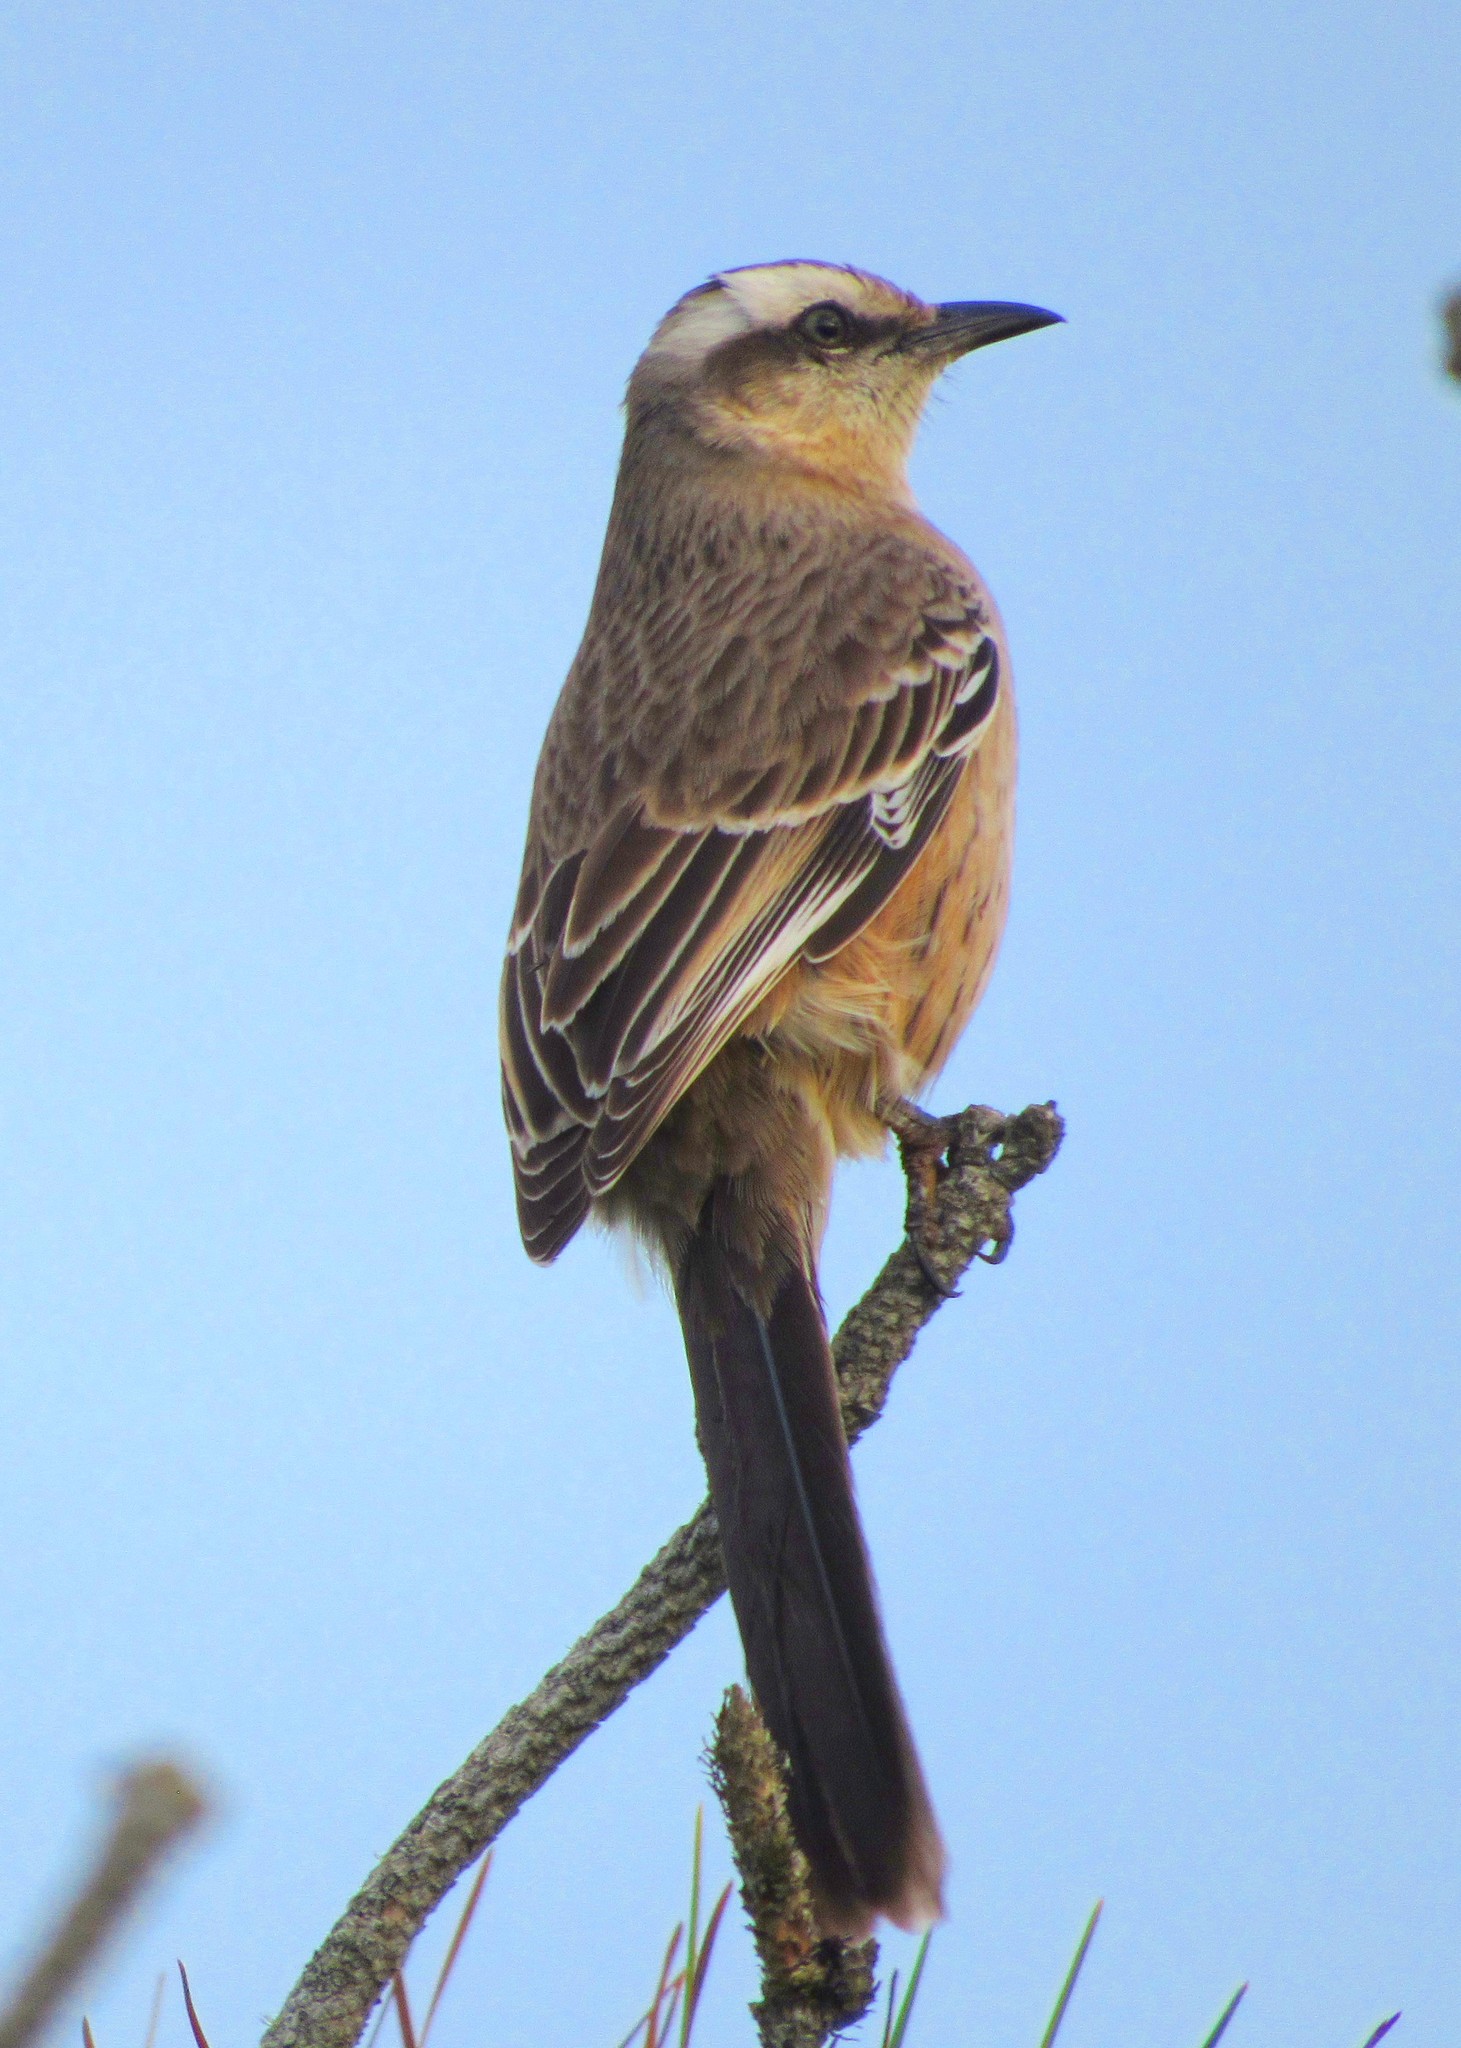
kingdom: Animalia
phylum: Chordata
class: Aves
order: Passeriformes
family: Mimidae
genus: Mimus
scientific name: Mimus saturninus
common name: Chalk-browed mockingbird
